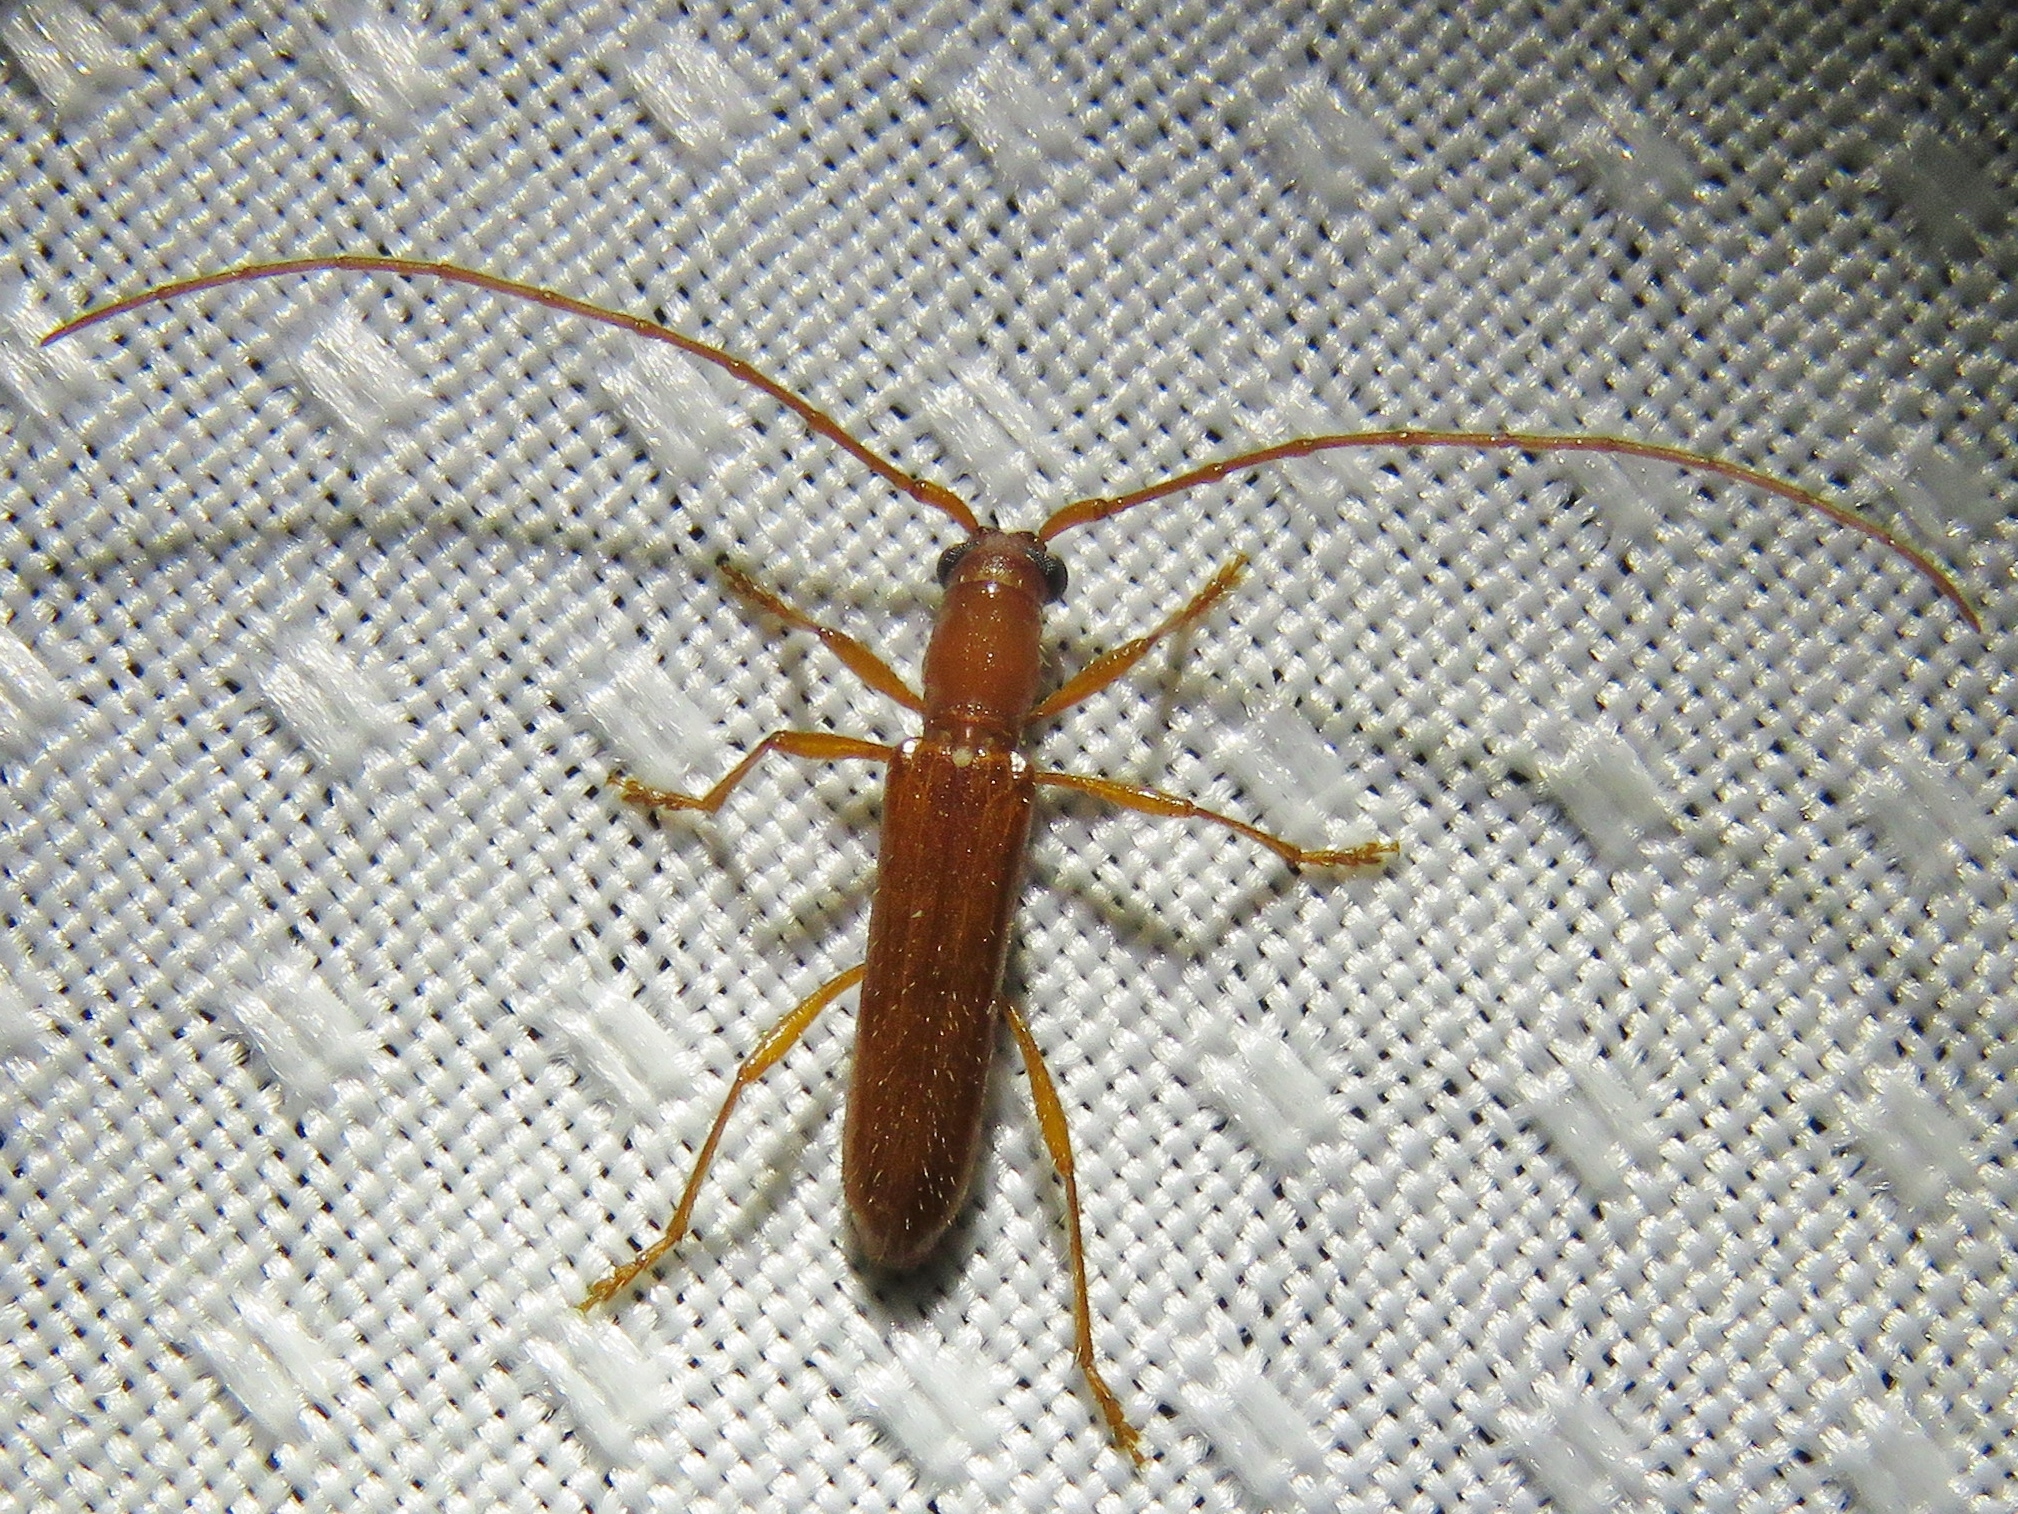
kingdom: Animalia
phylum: Arthropoda
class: Insecta
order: Coleoptera
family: Cerambycidae
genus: Psyrassa
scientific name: Psyrassa unicolor
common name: Branch pruner
